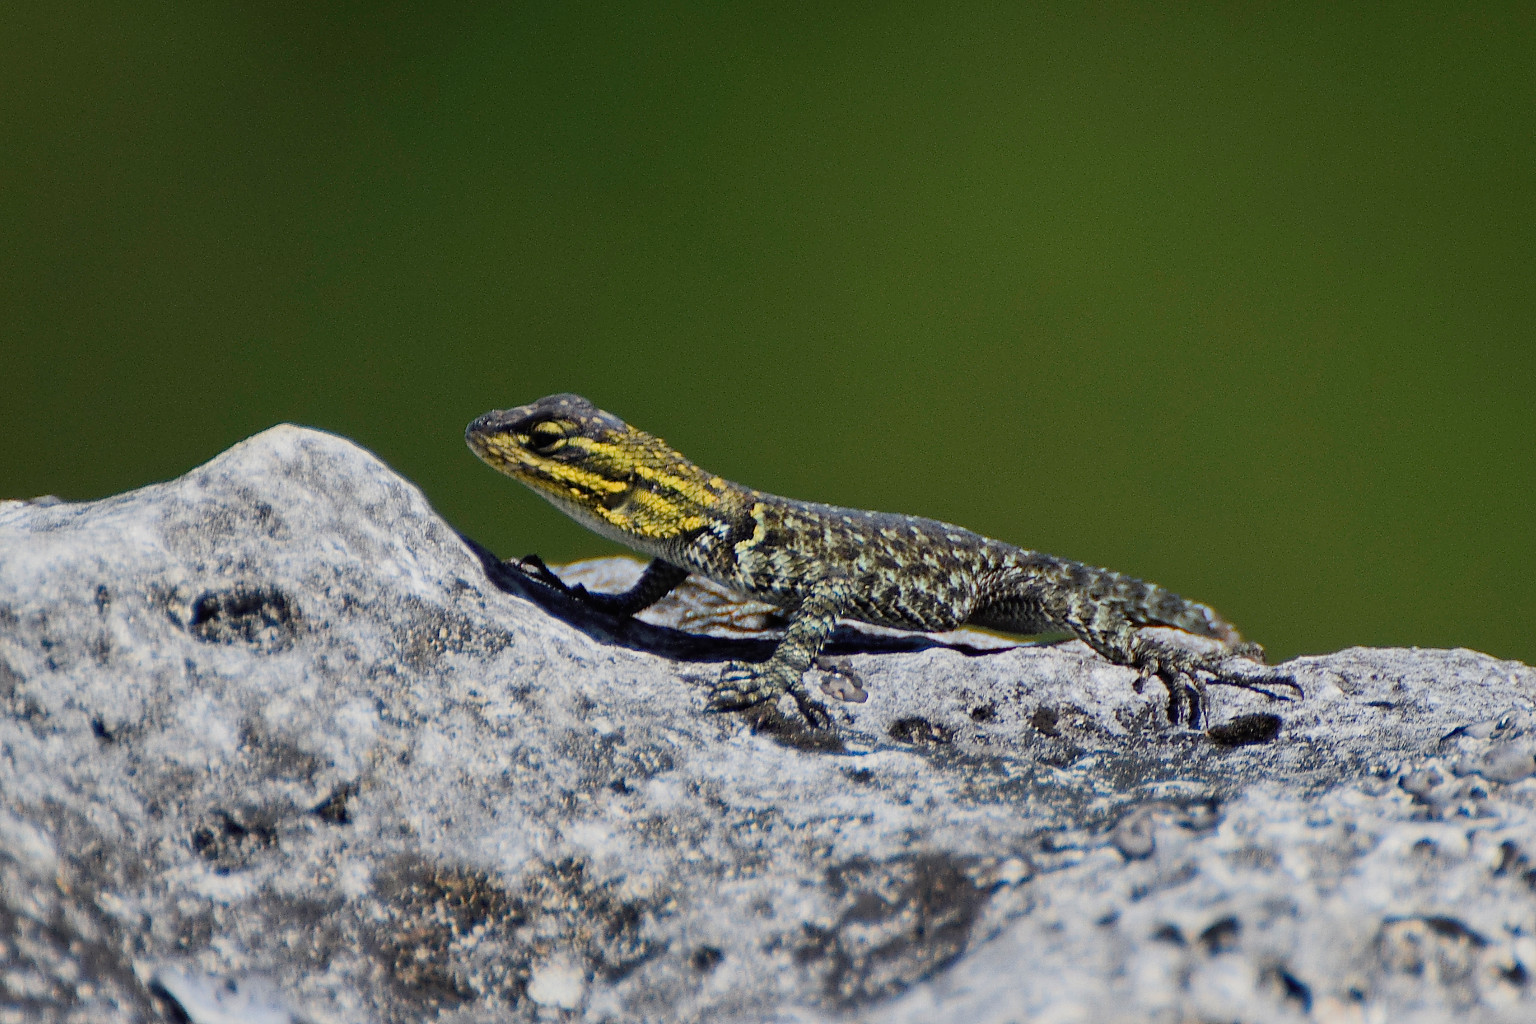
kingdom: Animalia
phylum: Chordata
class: Squamata
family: Phrynosomatidae
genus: Sceloporus
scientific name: Sceloporus minor
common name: Minor lizard
